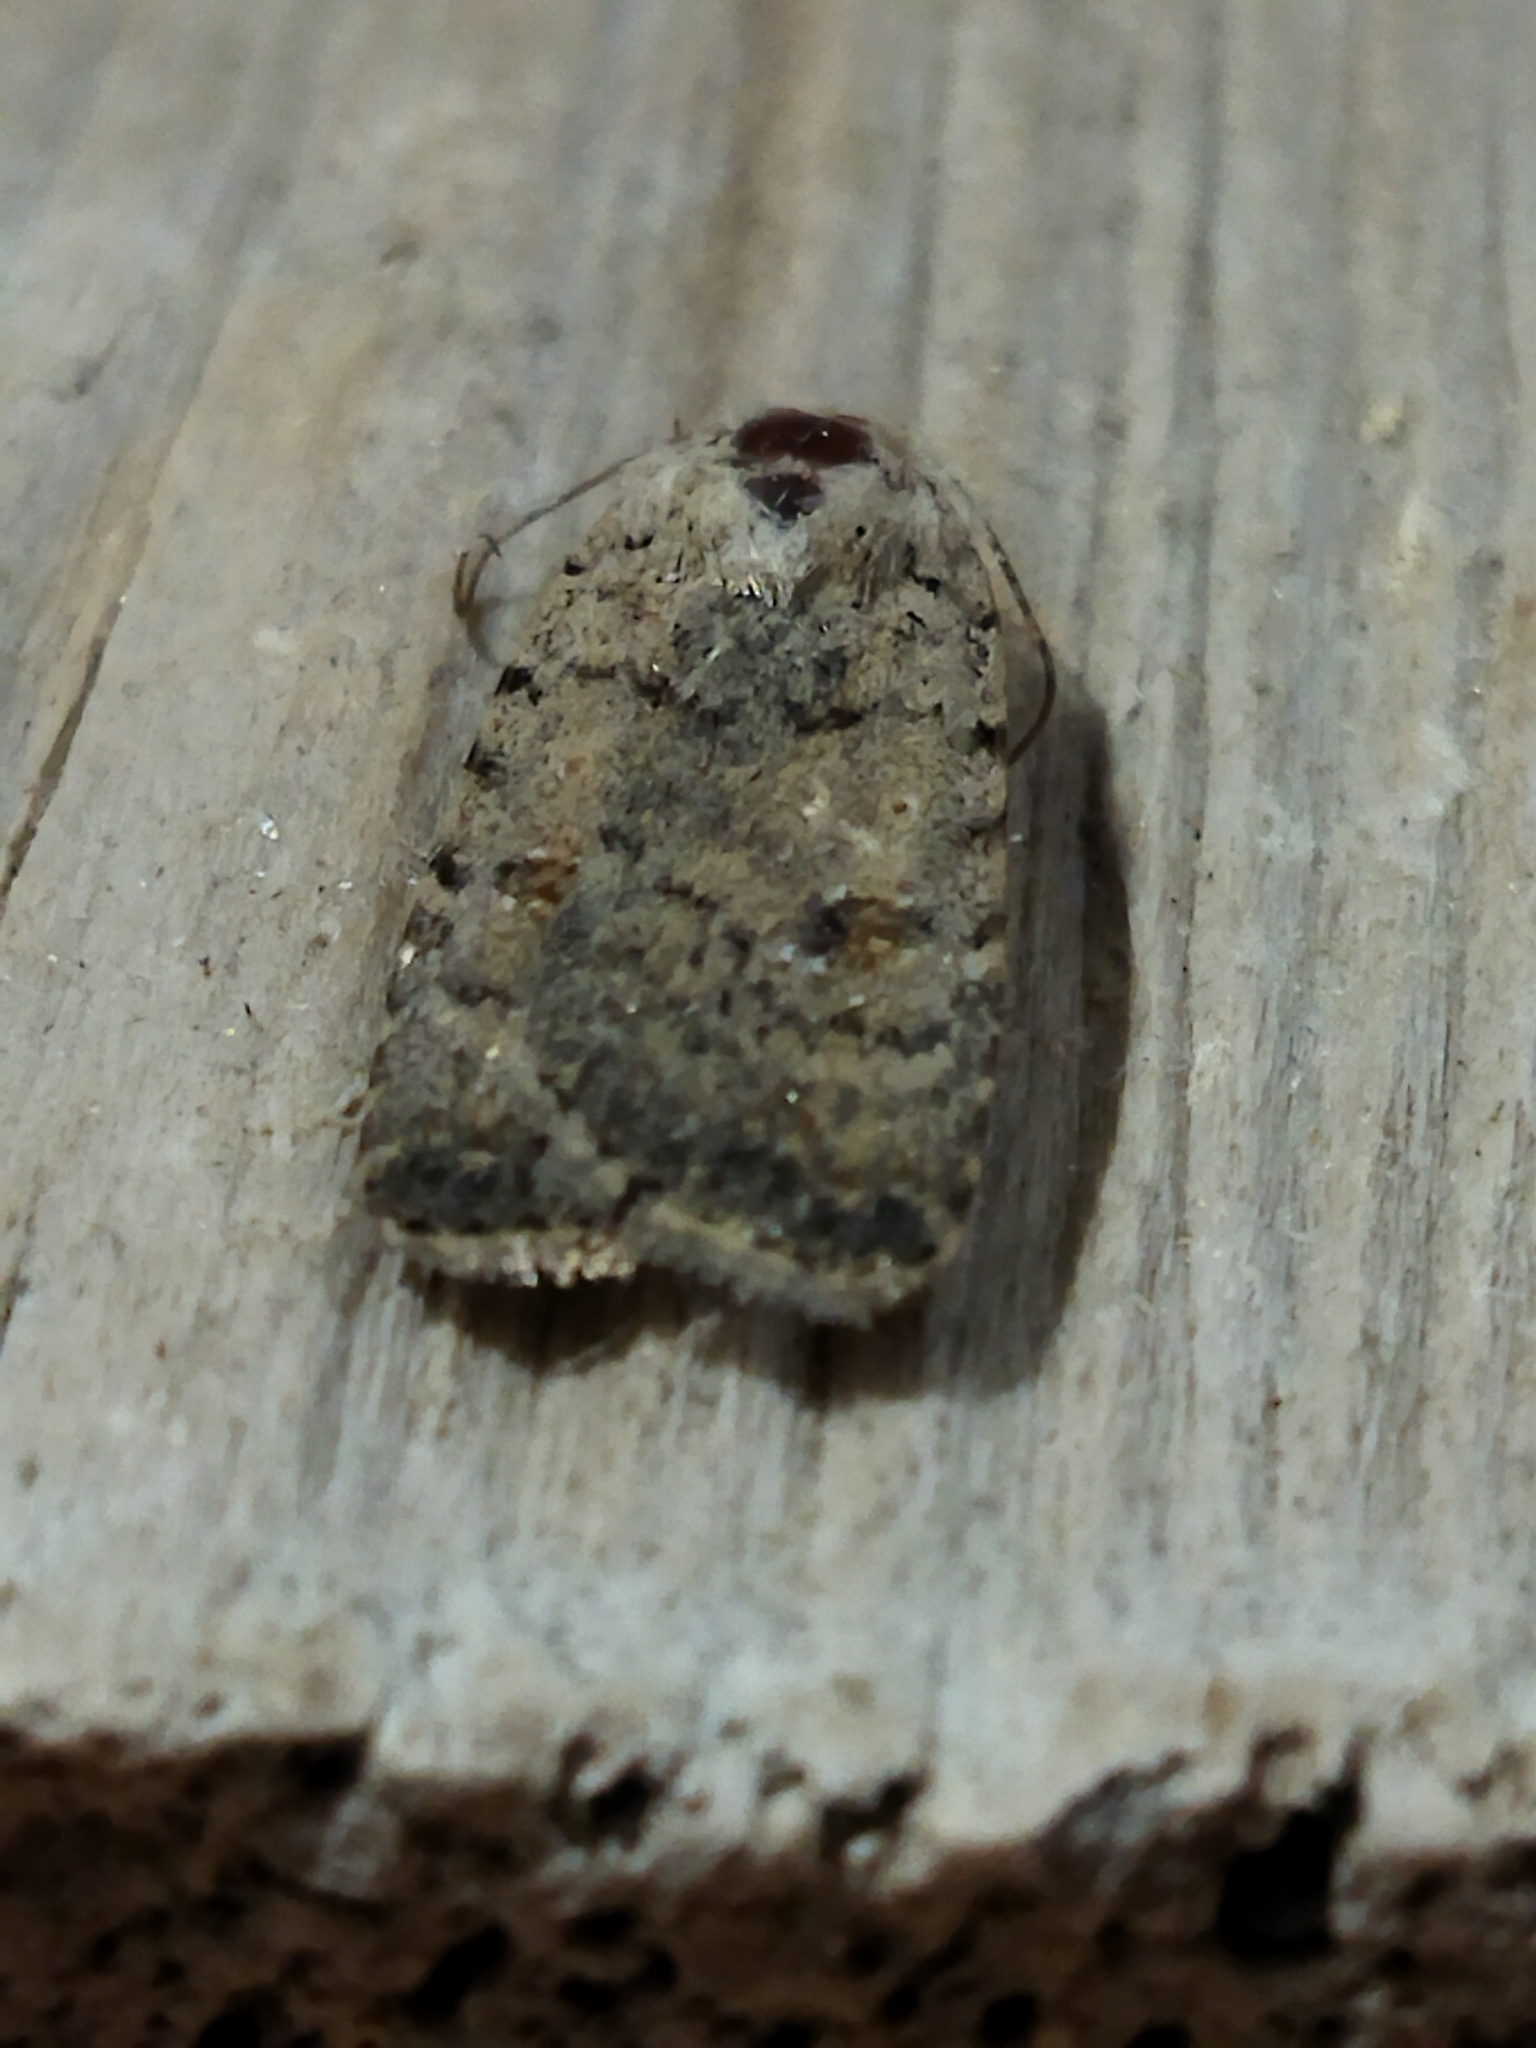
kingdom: Animalia
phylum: Arthropoda
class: Insecta
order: Lepidoptera
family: Noctuidae
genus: Caradrina
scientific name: Caradrina clavipalpis
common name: Pale mottled willow
